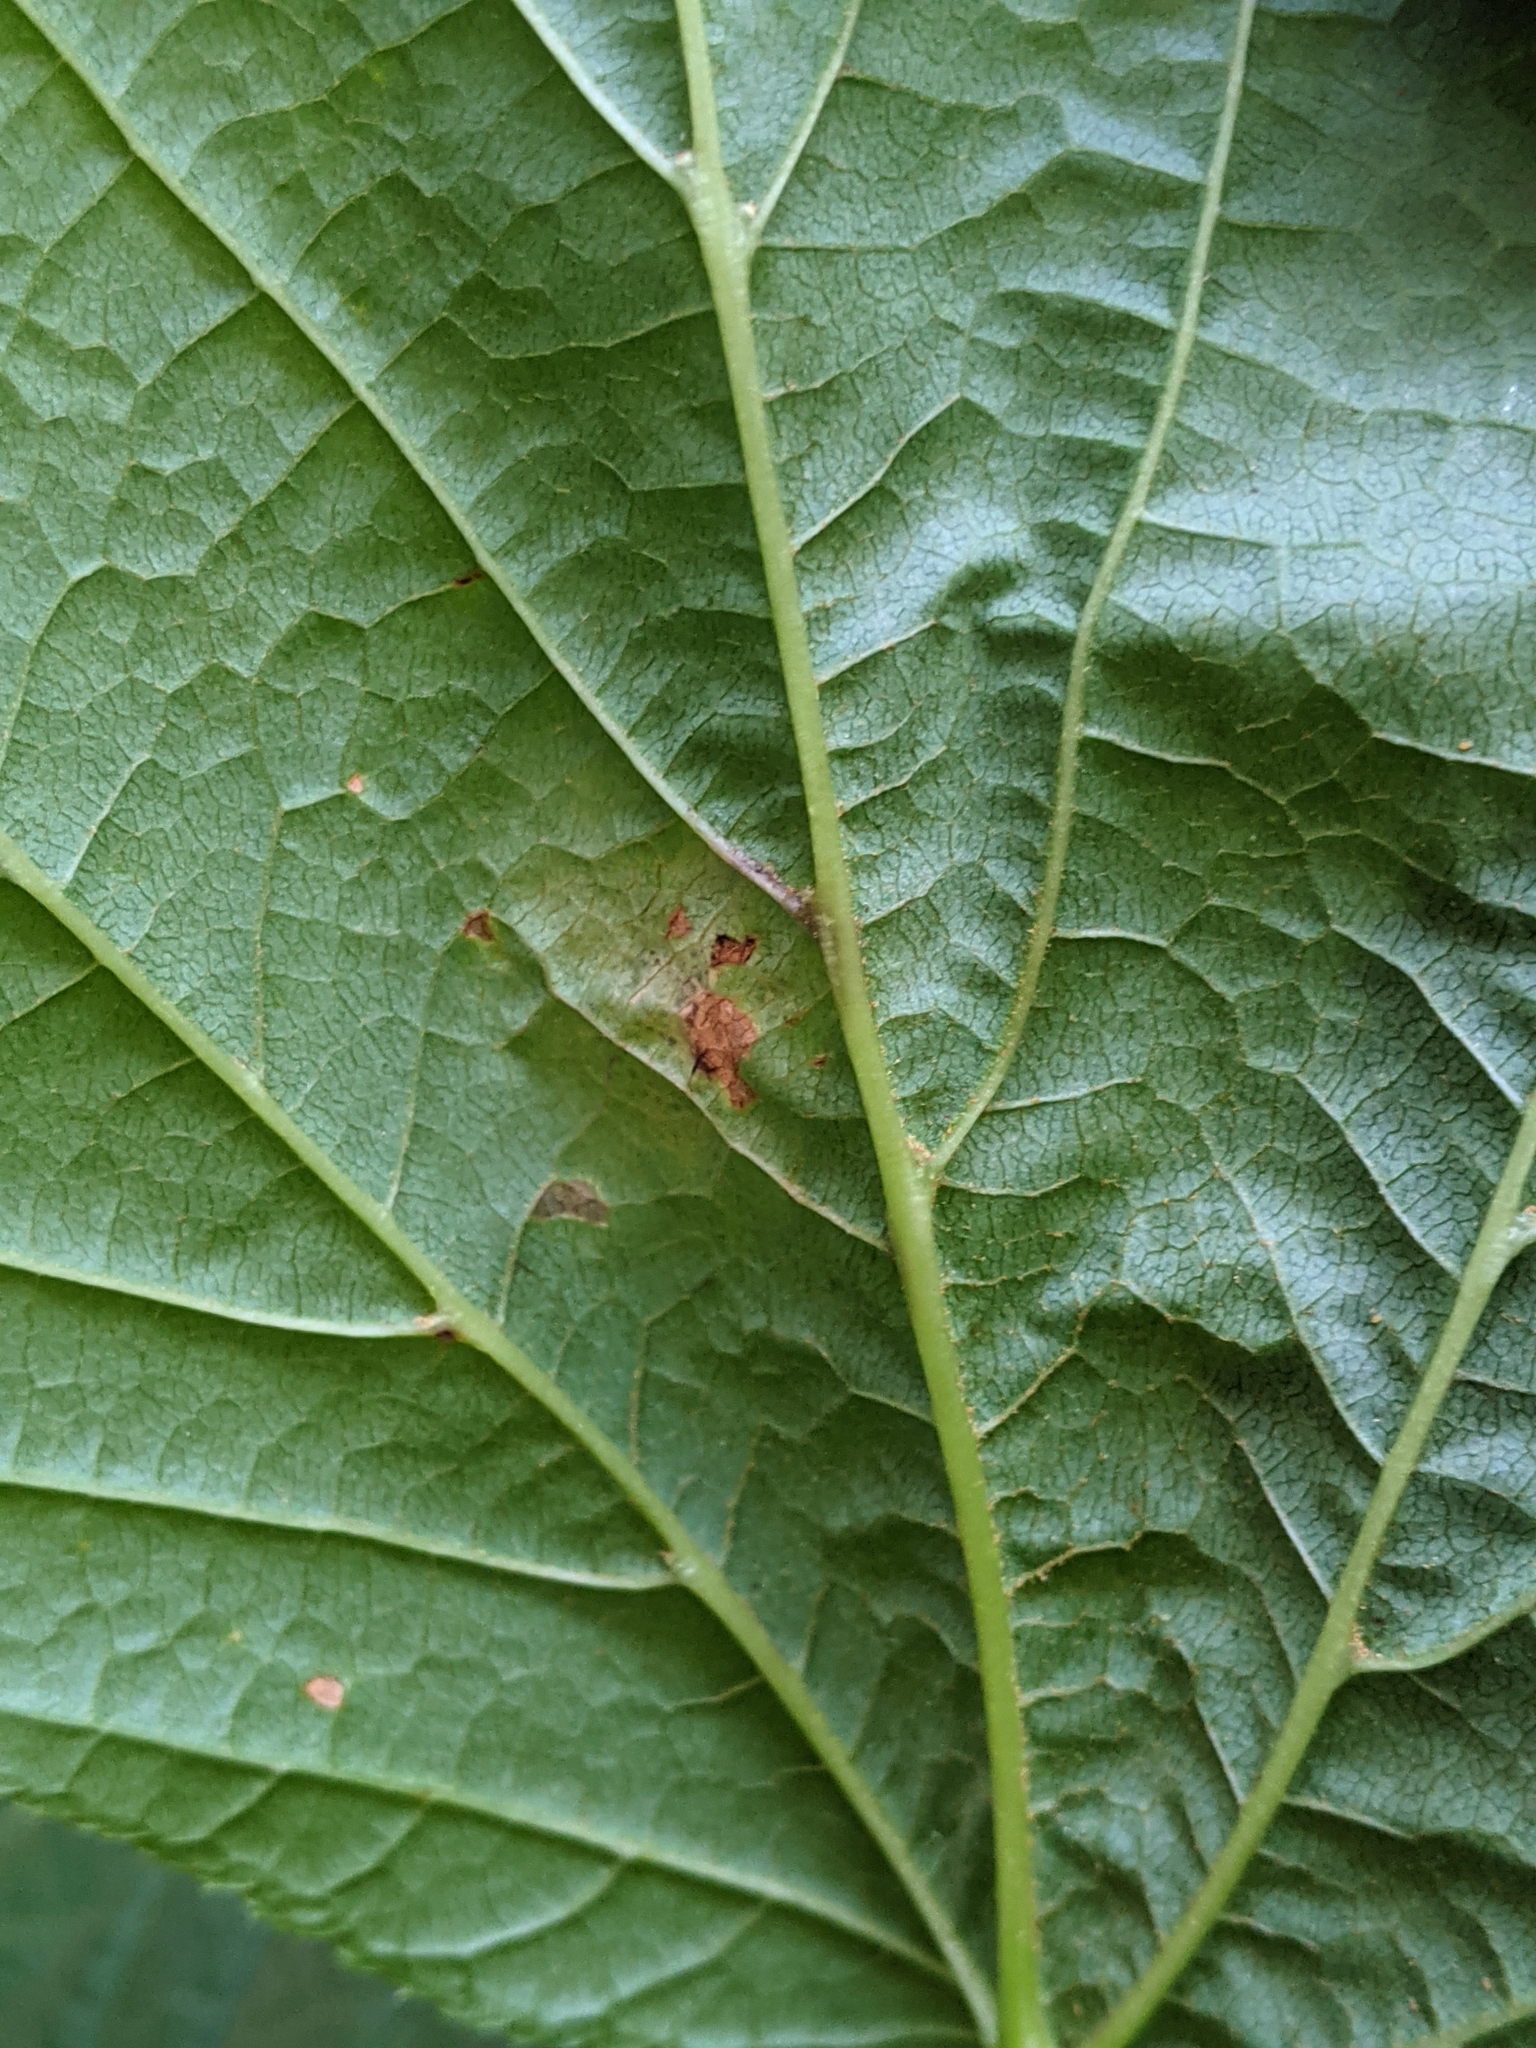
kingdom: Fungi
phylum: Ascomycota
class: Leotiomycetes
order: Rhytismatales
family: Rhytismataceae
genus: Rhytisma
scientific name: Rhytisma punctatum
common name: Speckled tar spot
